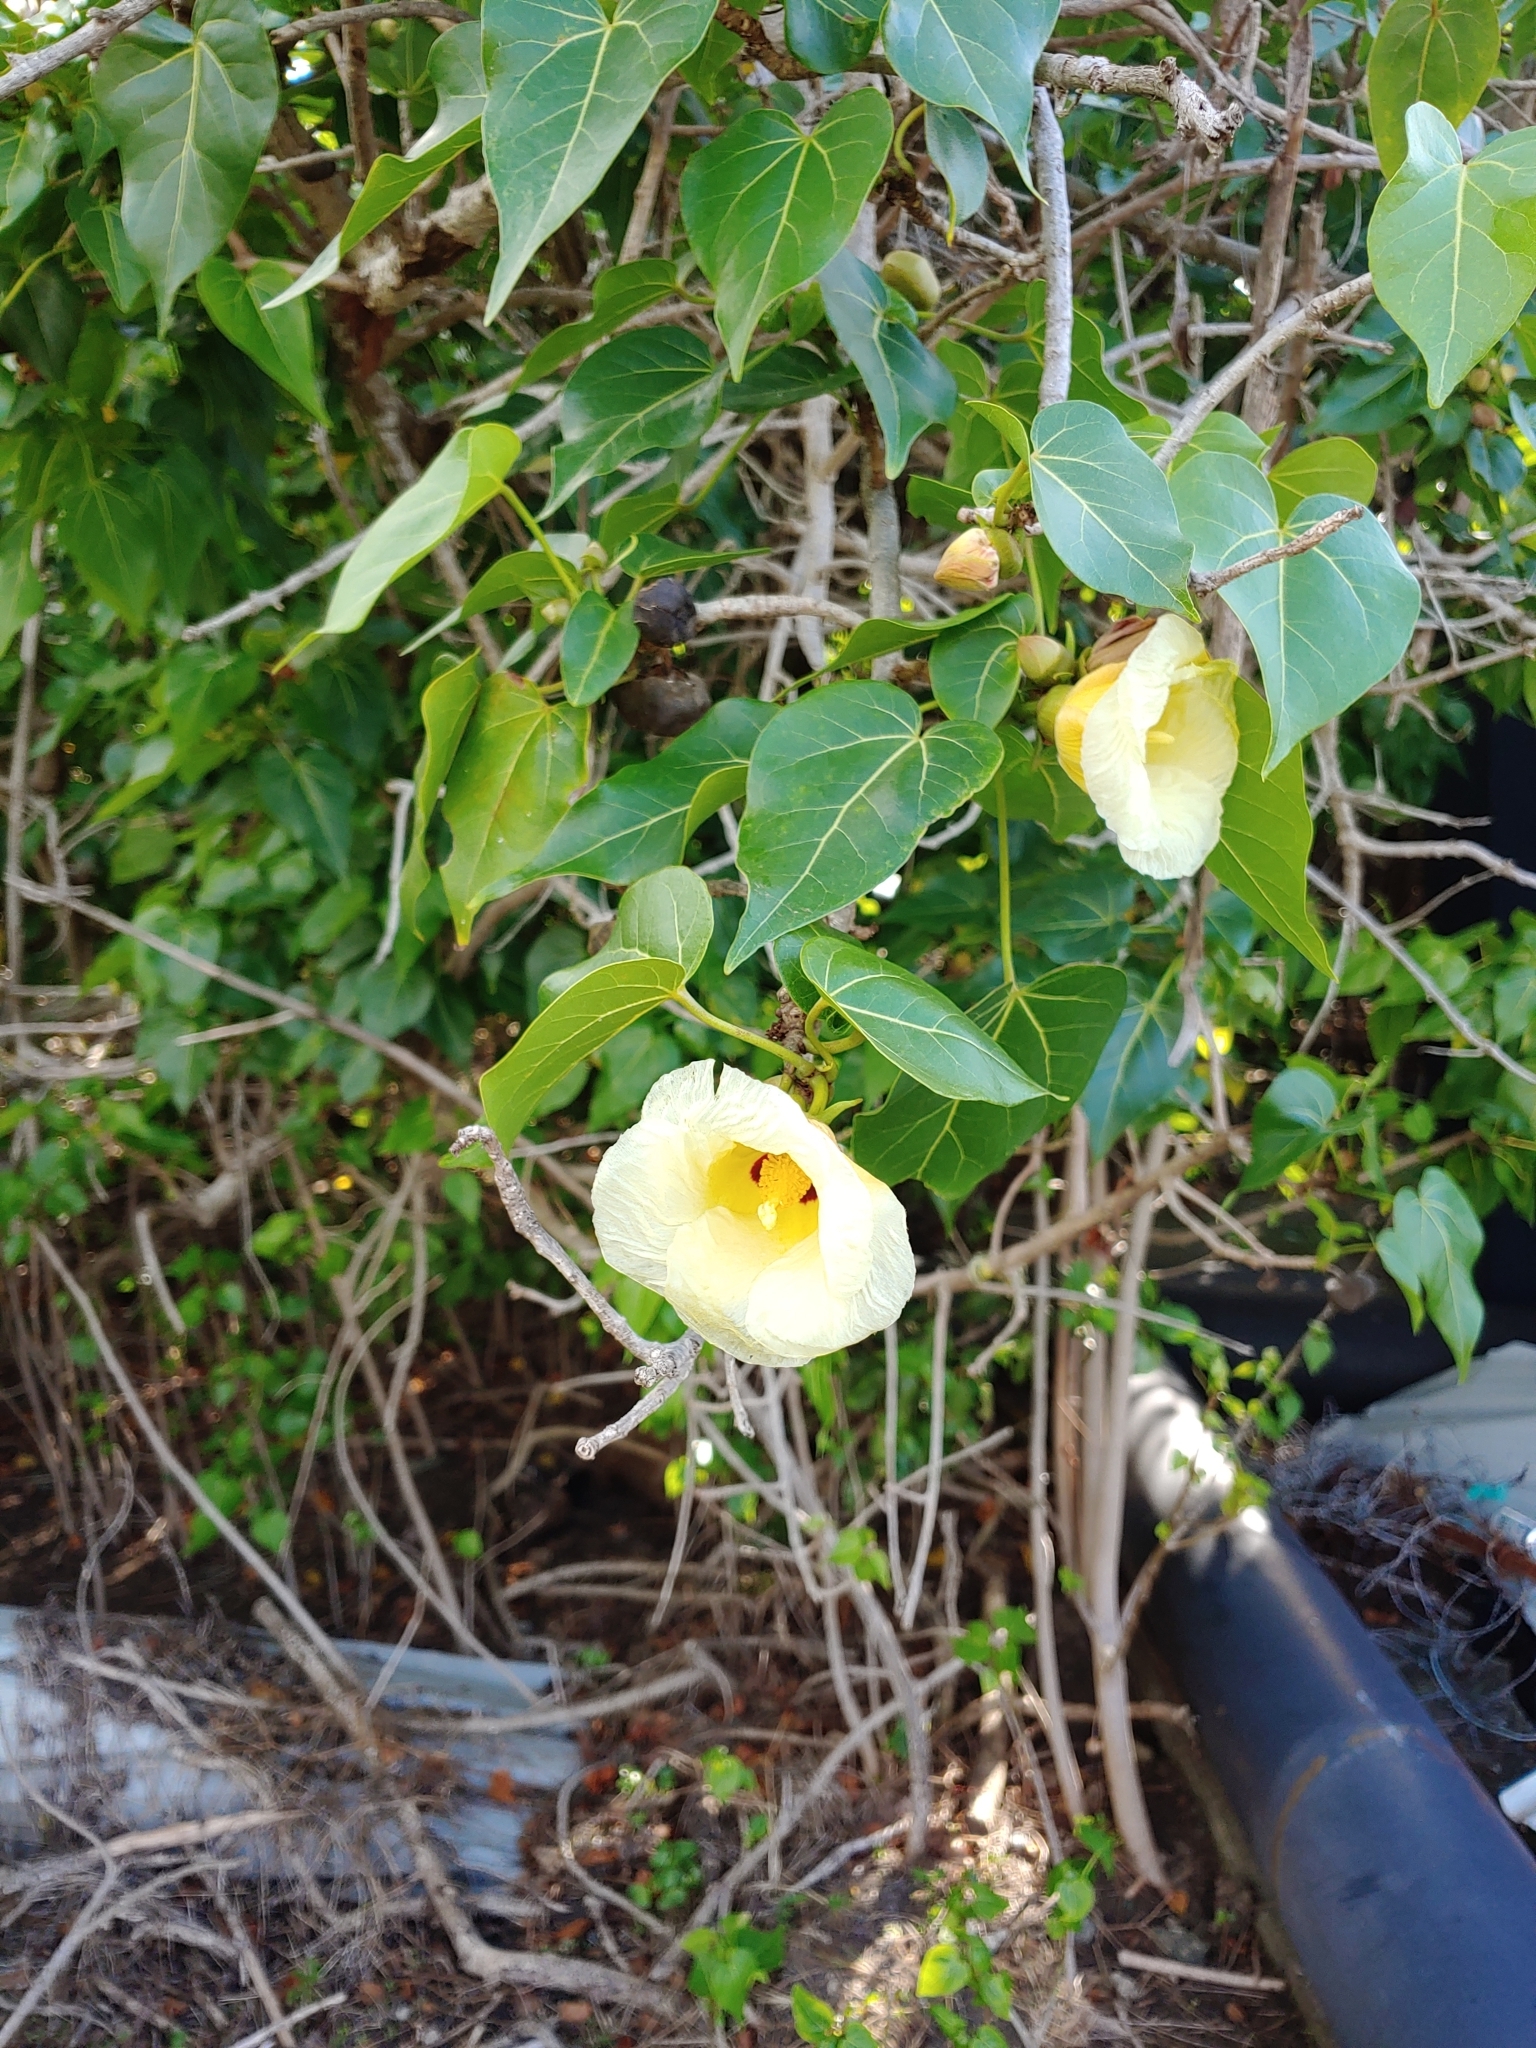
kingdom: Plantae
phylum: Tracheophyta
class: Magnoliopsida
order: Malvales
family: Malvaceae
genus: Thespesia
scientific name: Thespesia populnea
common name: Seaside mahoe
